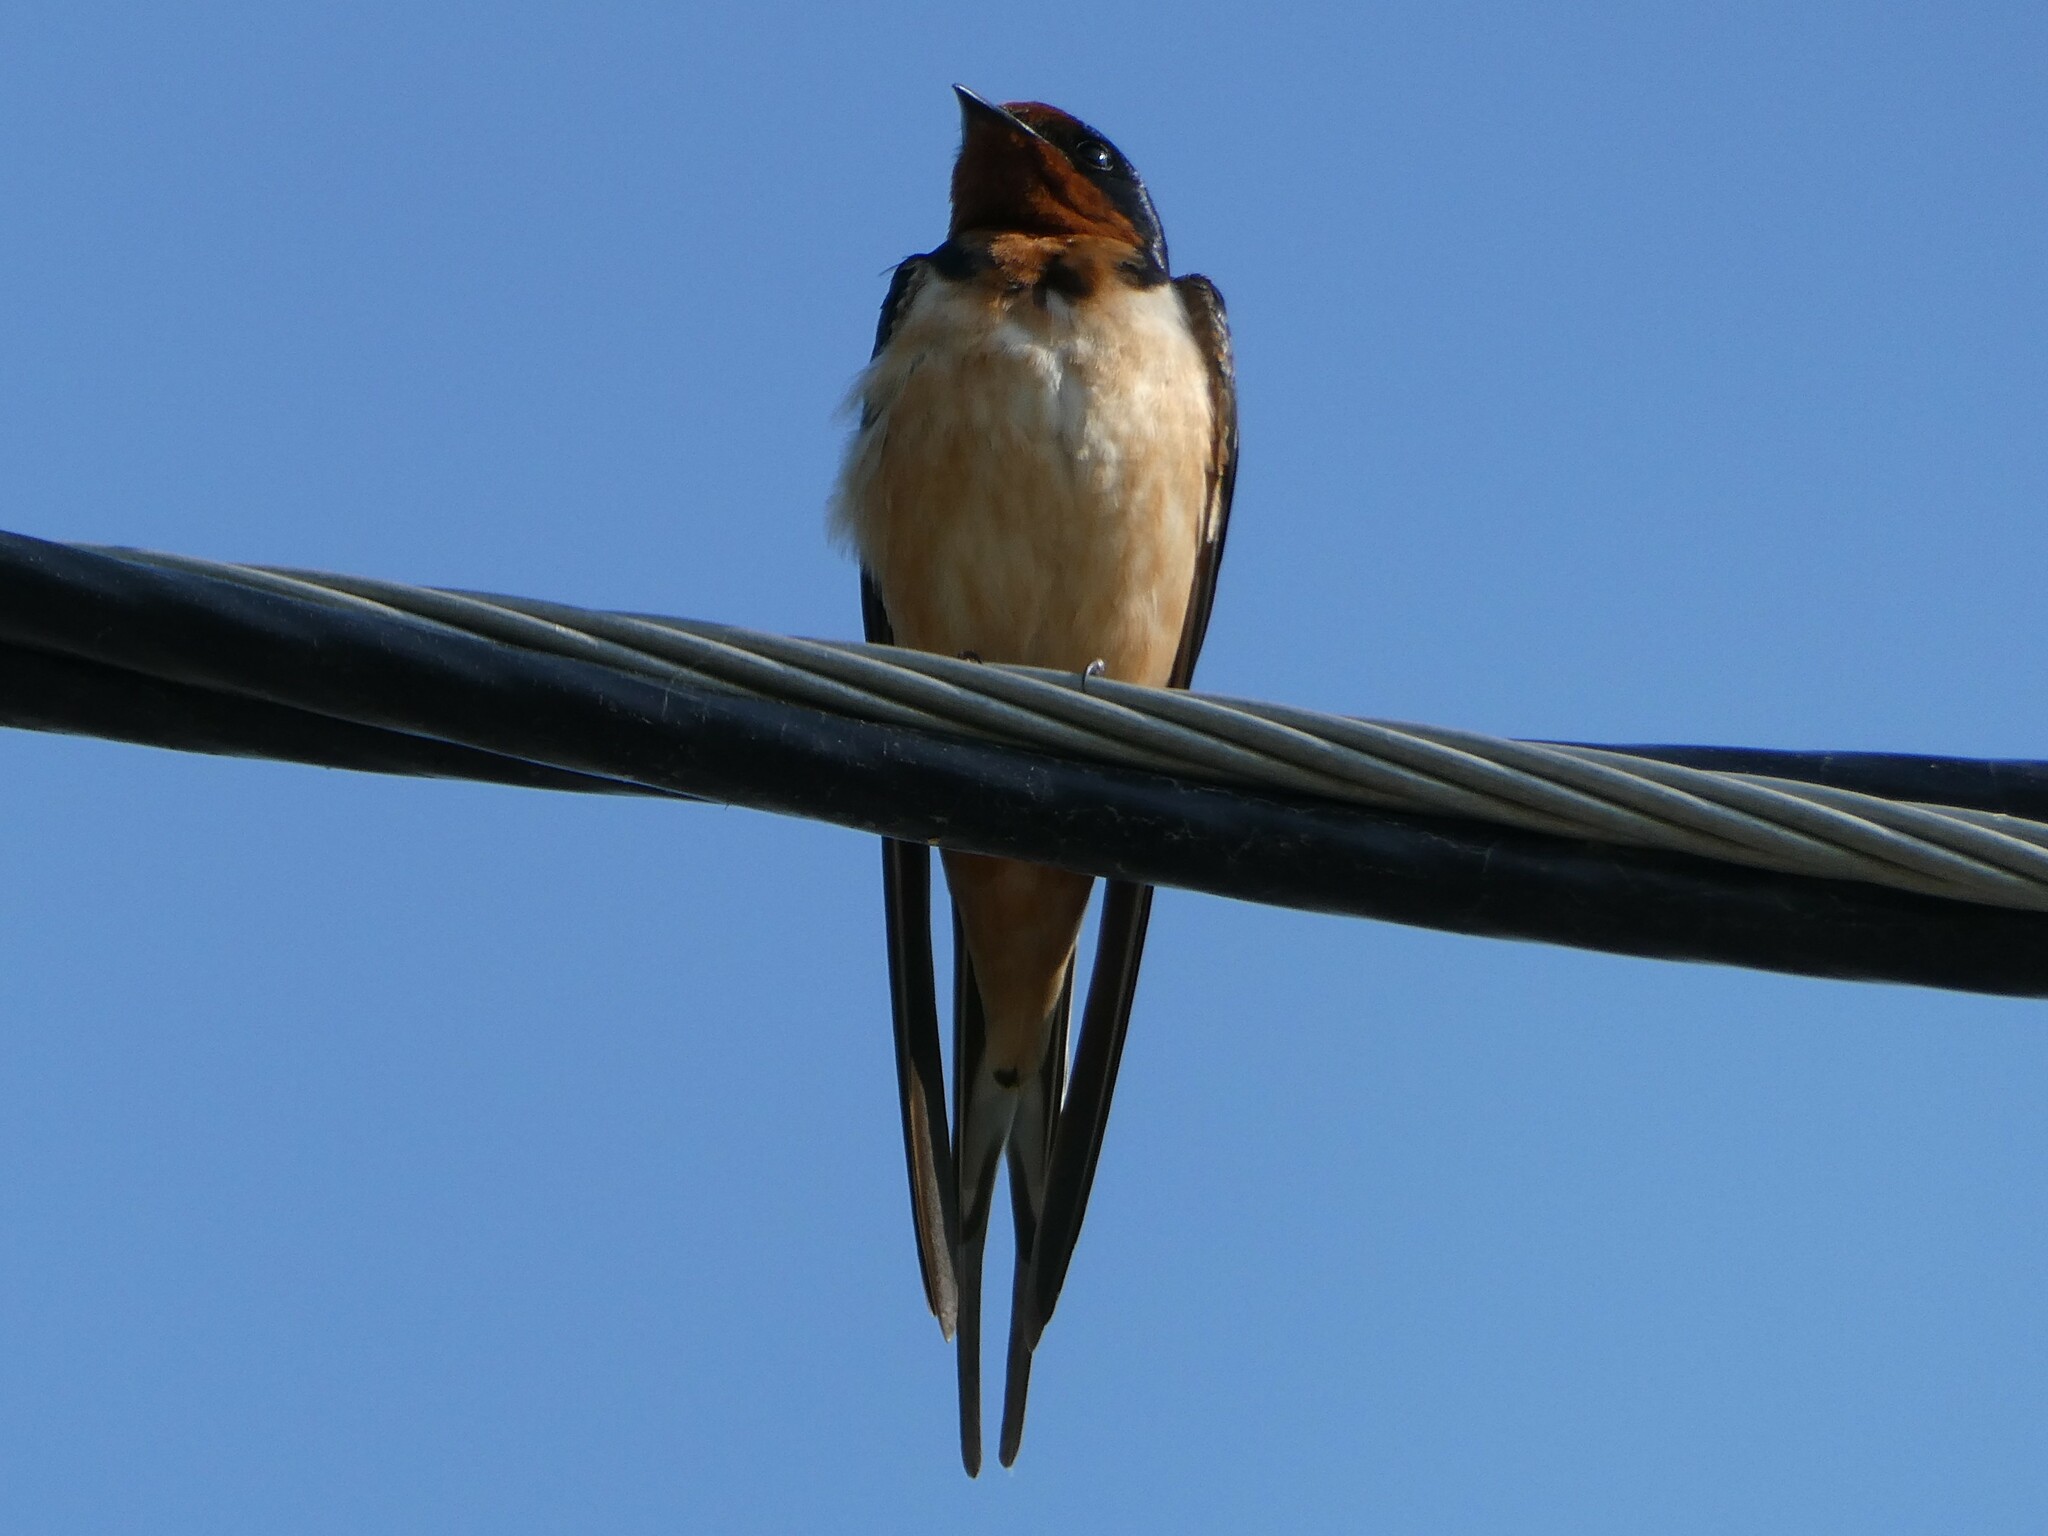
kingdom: Animalia
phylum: Chordata
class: Aves
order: Passeriformes
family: Hirundinidae
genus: Hirundo
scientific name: Hirundo rustica
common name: Barn swallow
